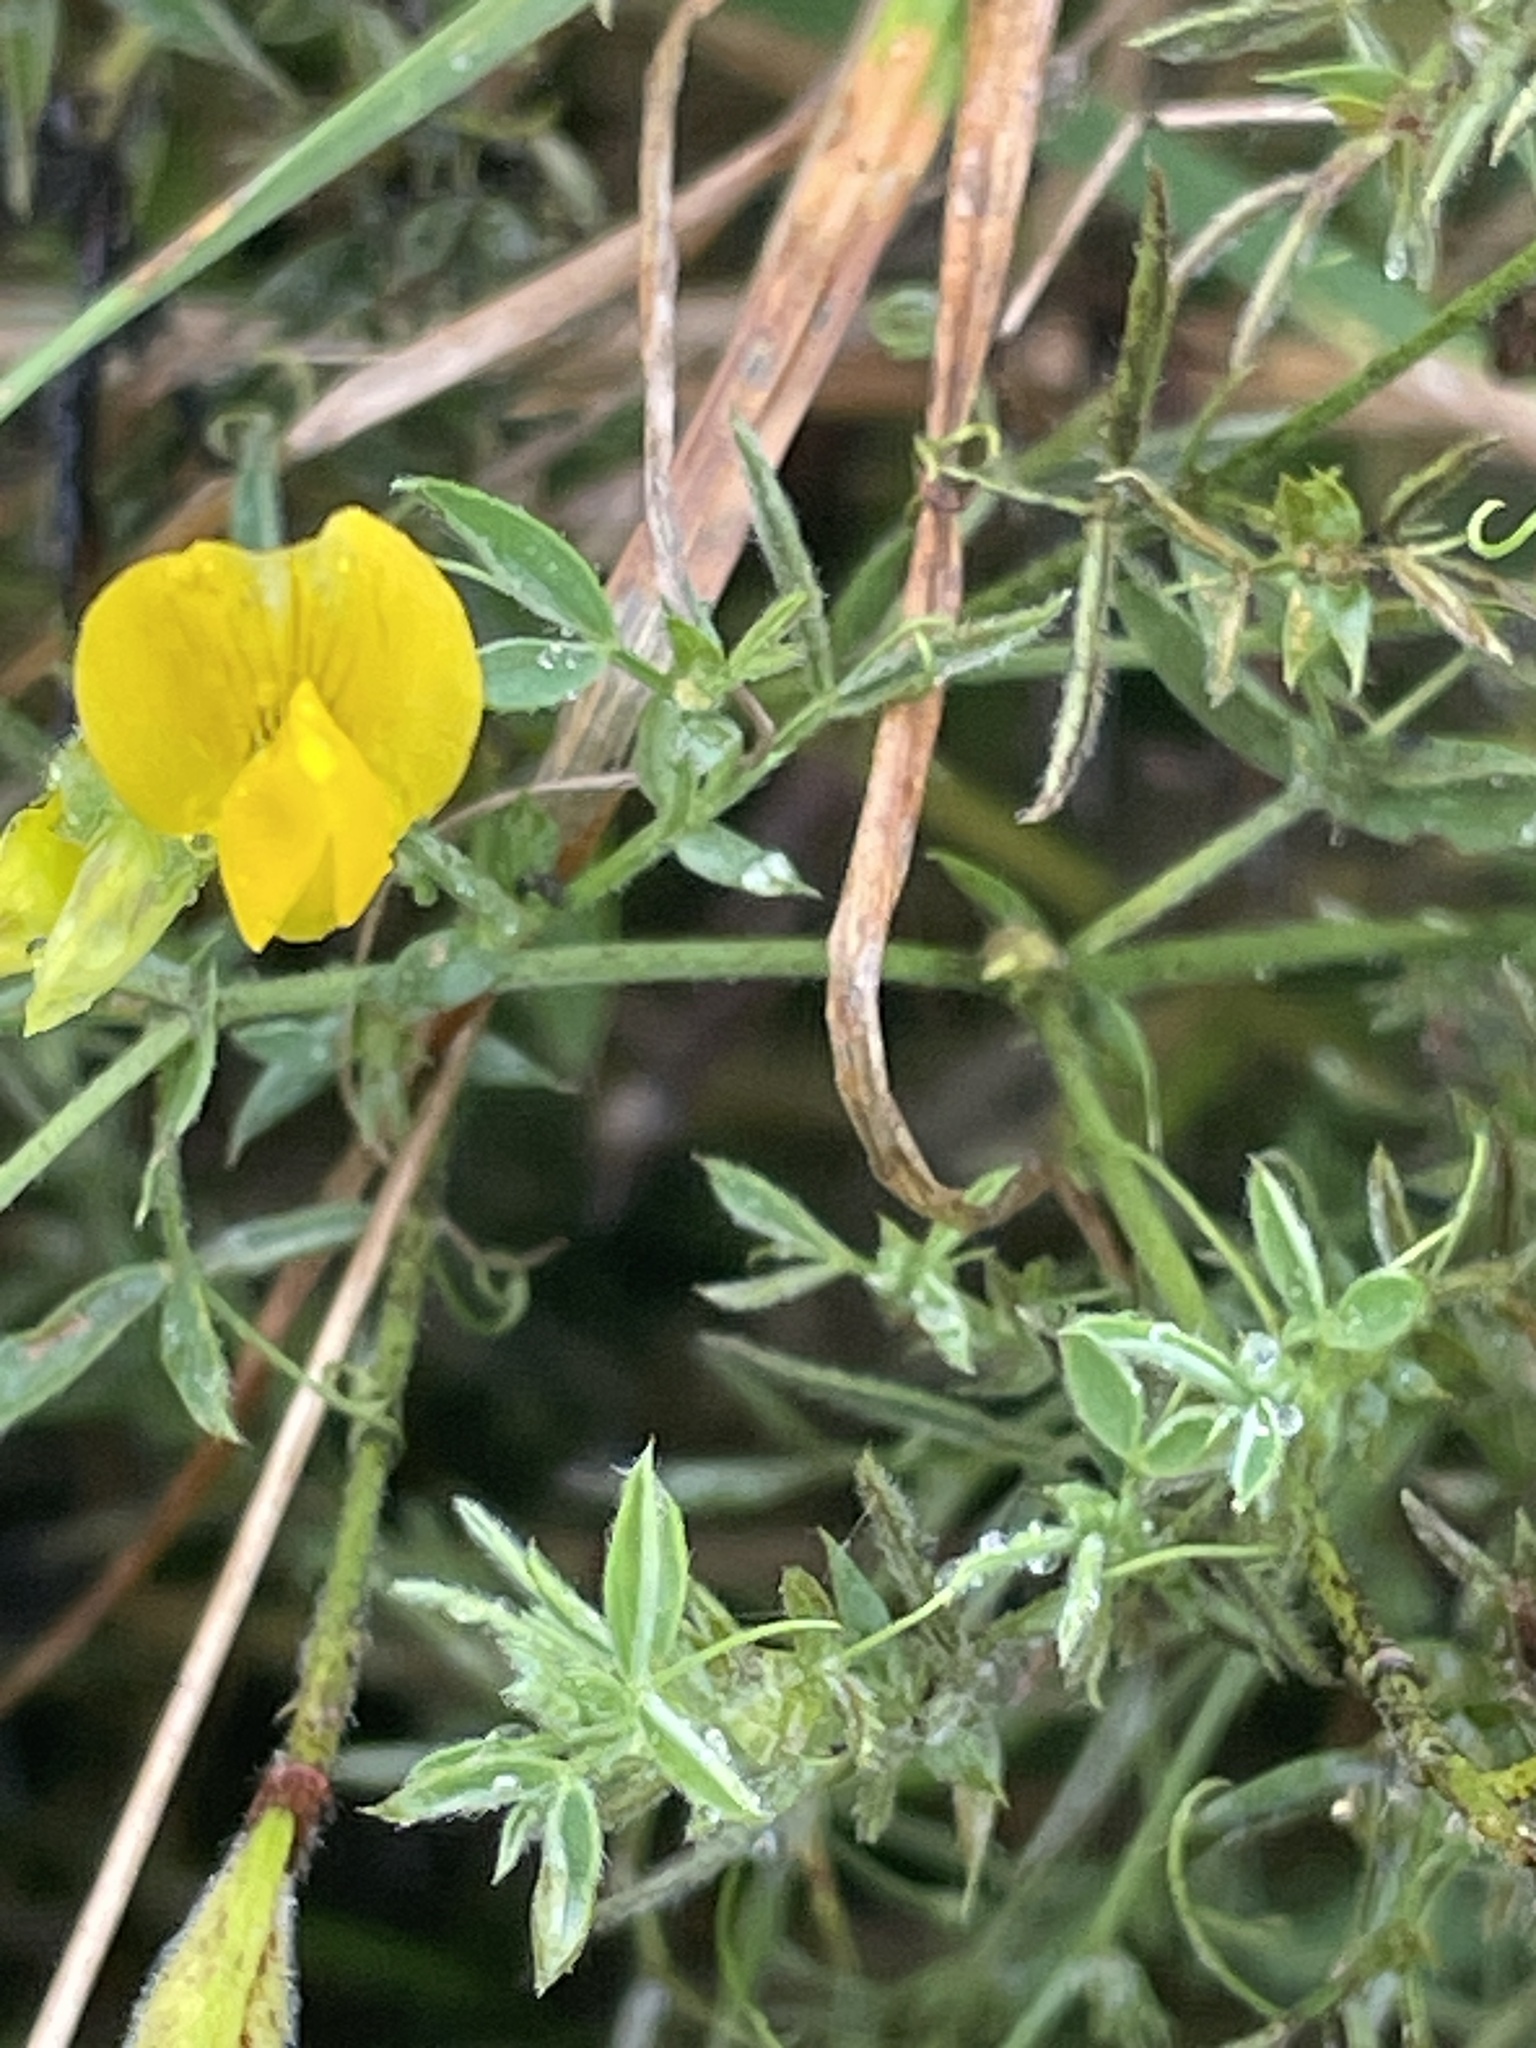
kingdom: Plantae
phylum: Tracheophyta
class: Magnoliopsida
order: Fabales
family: Fabaceae
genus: Lathyrus
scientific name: Lathyrus pratensis
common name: Meadow vetchling
